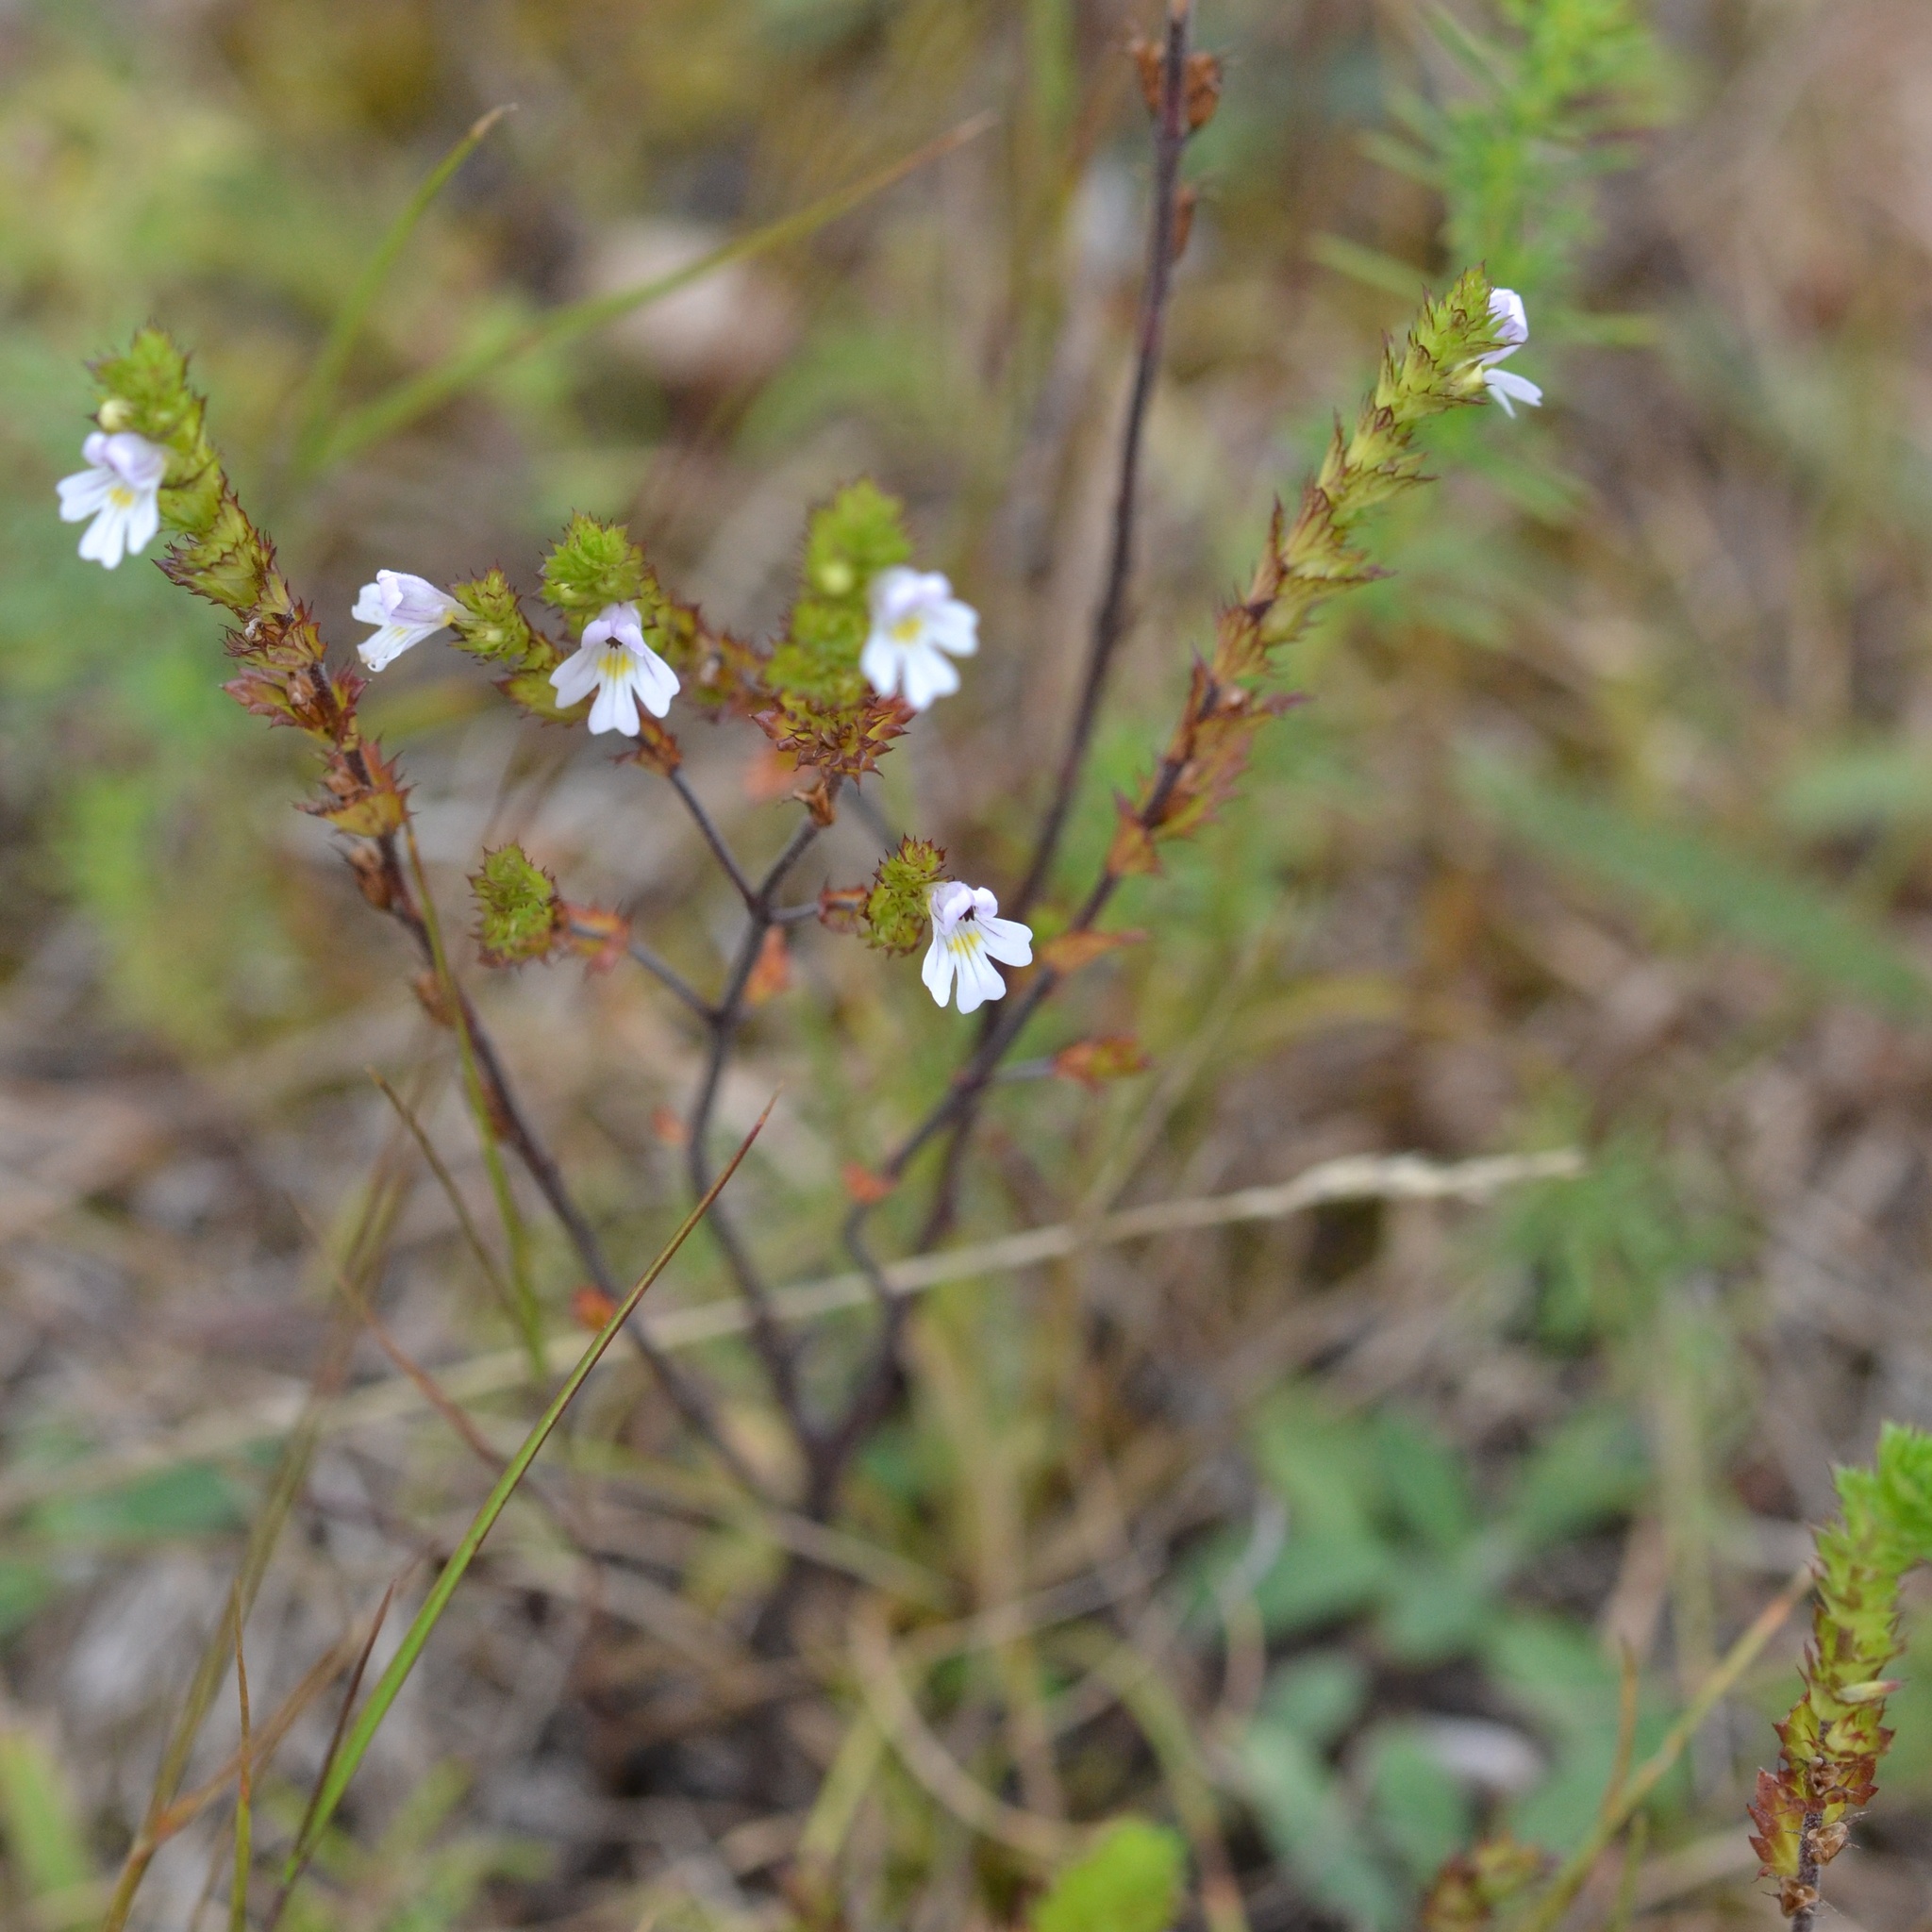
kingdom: Plantae
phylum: Tracheophyta
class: Magnoliopsida
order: Lamiales
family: Orobanchaceae
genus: Euphrasia
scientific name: Euphrasia stricta
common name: Drug eyebright
